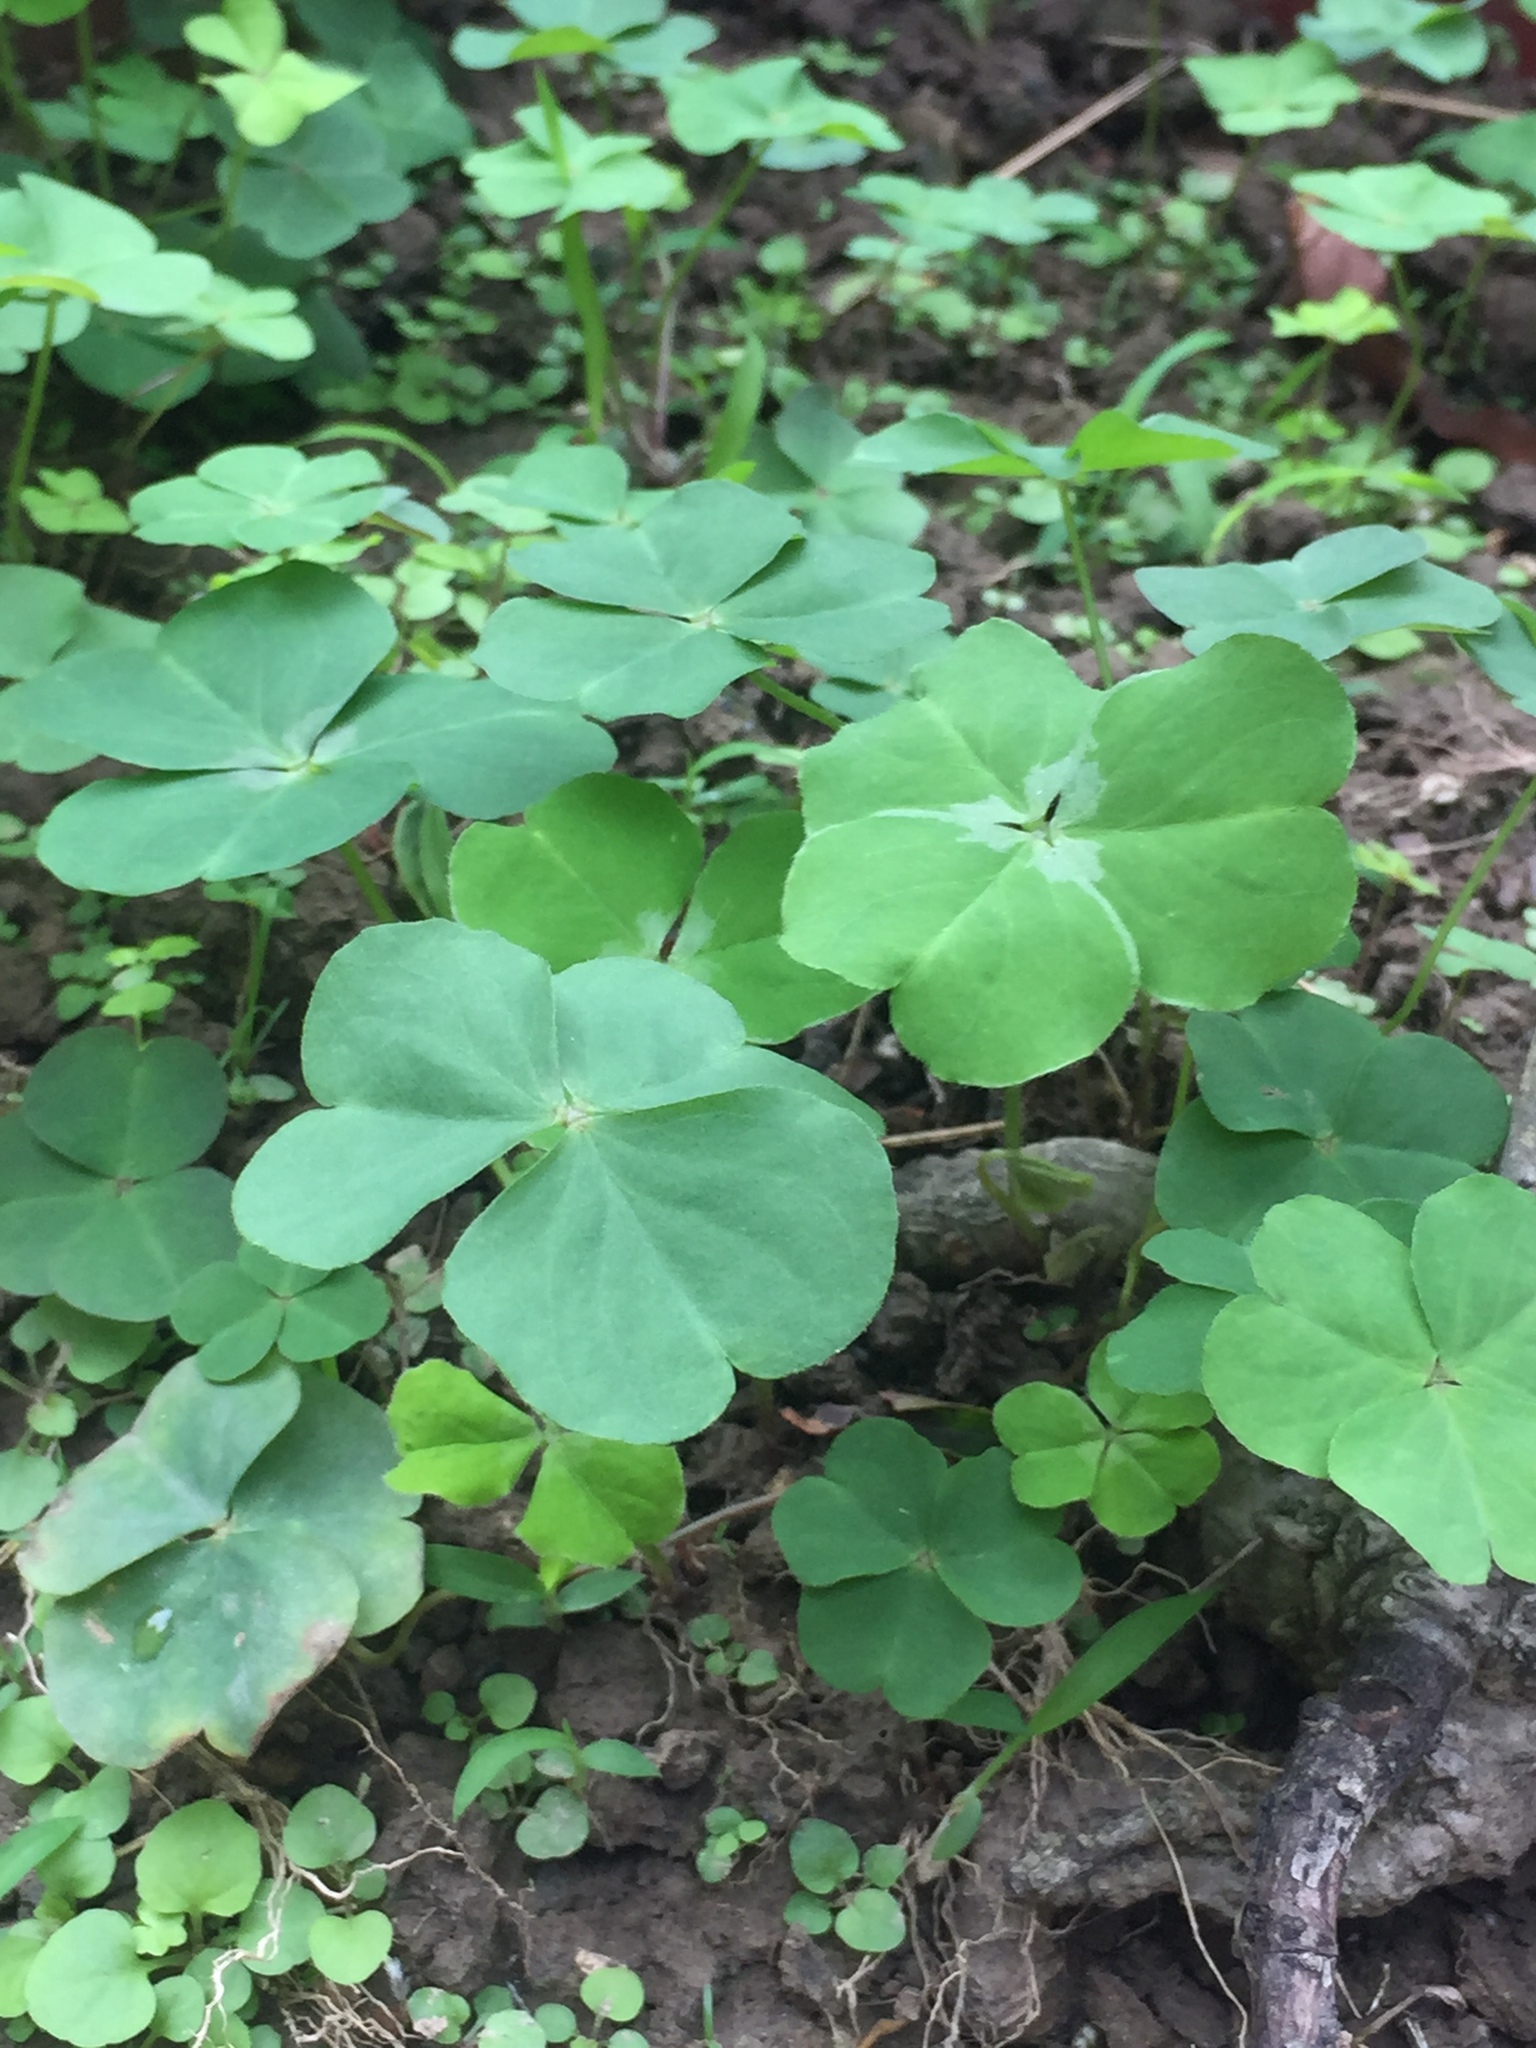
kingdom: Plantae
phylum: Tracheophyta
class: Magnoliopsida
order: Oxalidales
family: Oxalidaceae
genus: Oxalis
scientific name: Oxalis debilis
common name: Large-flowered pink-sorrel
